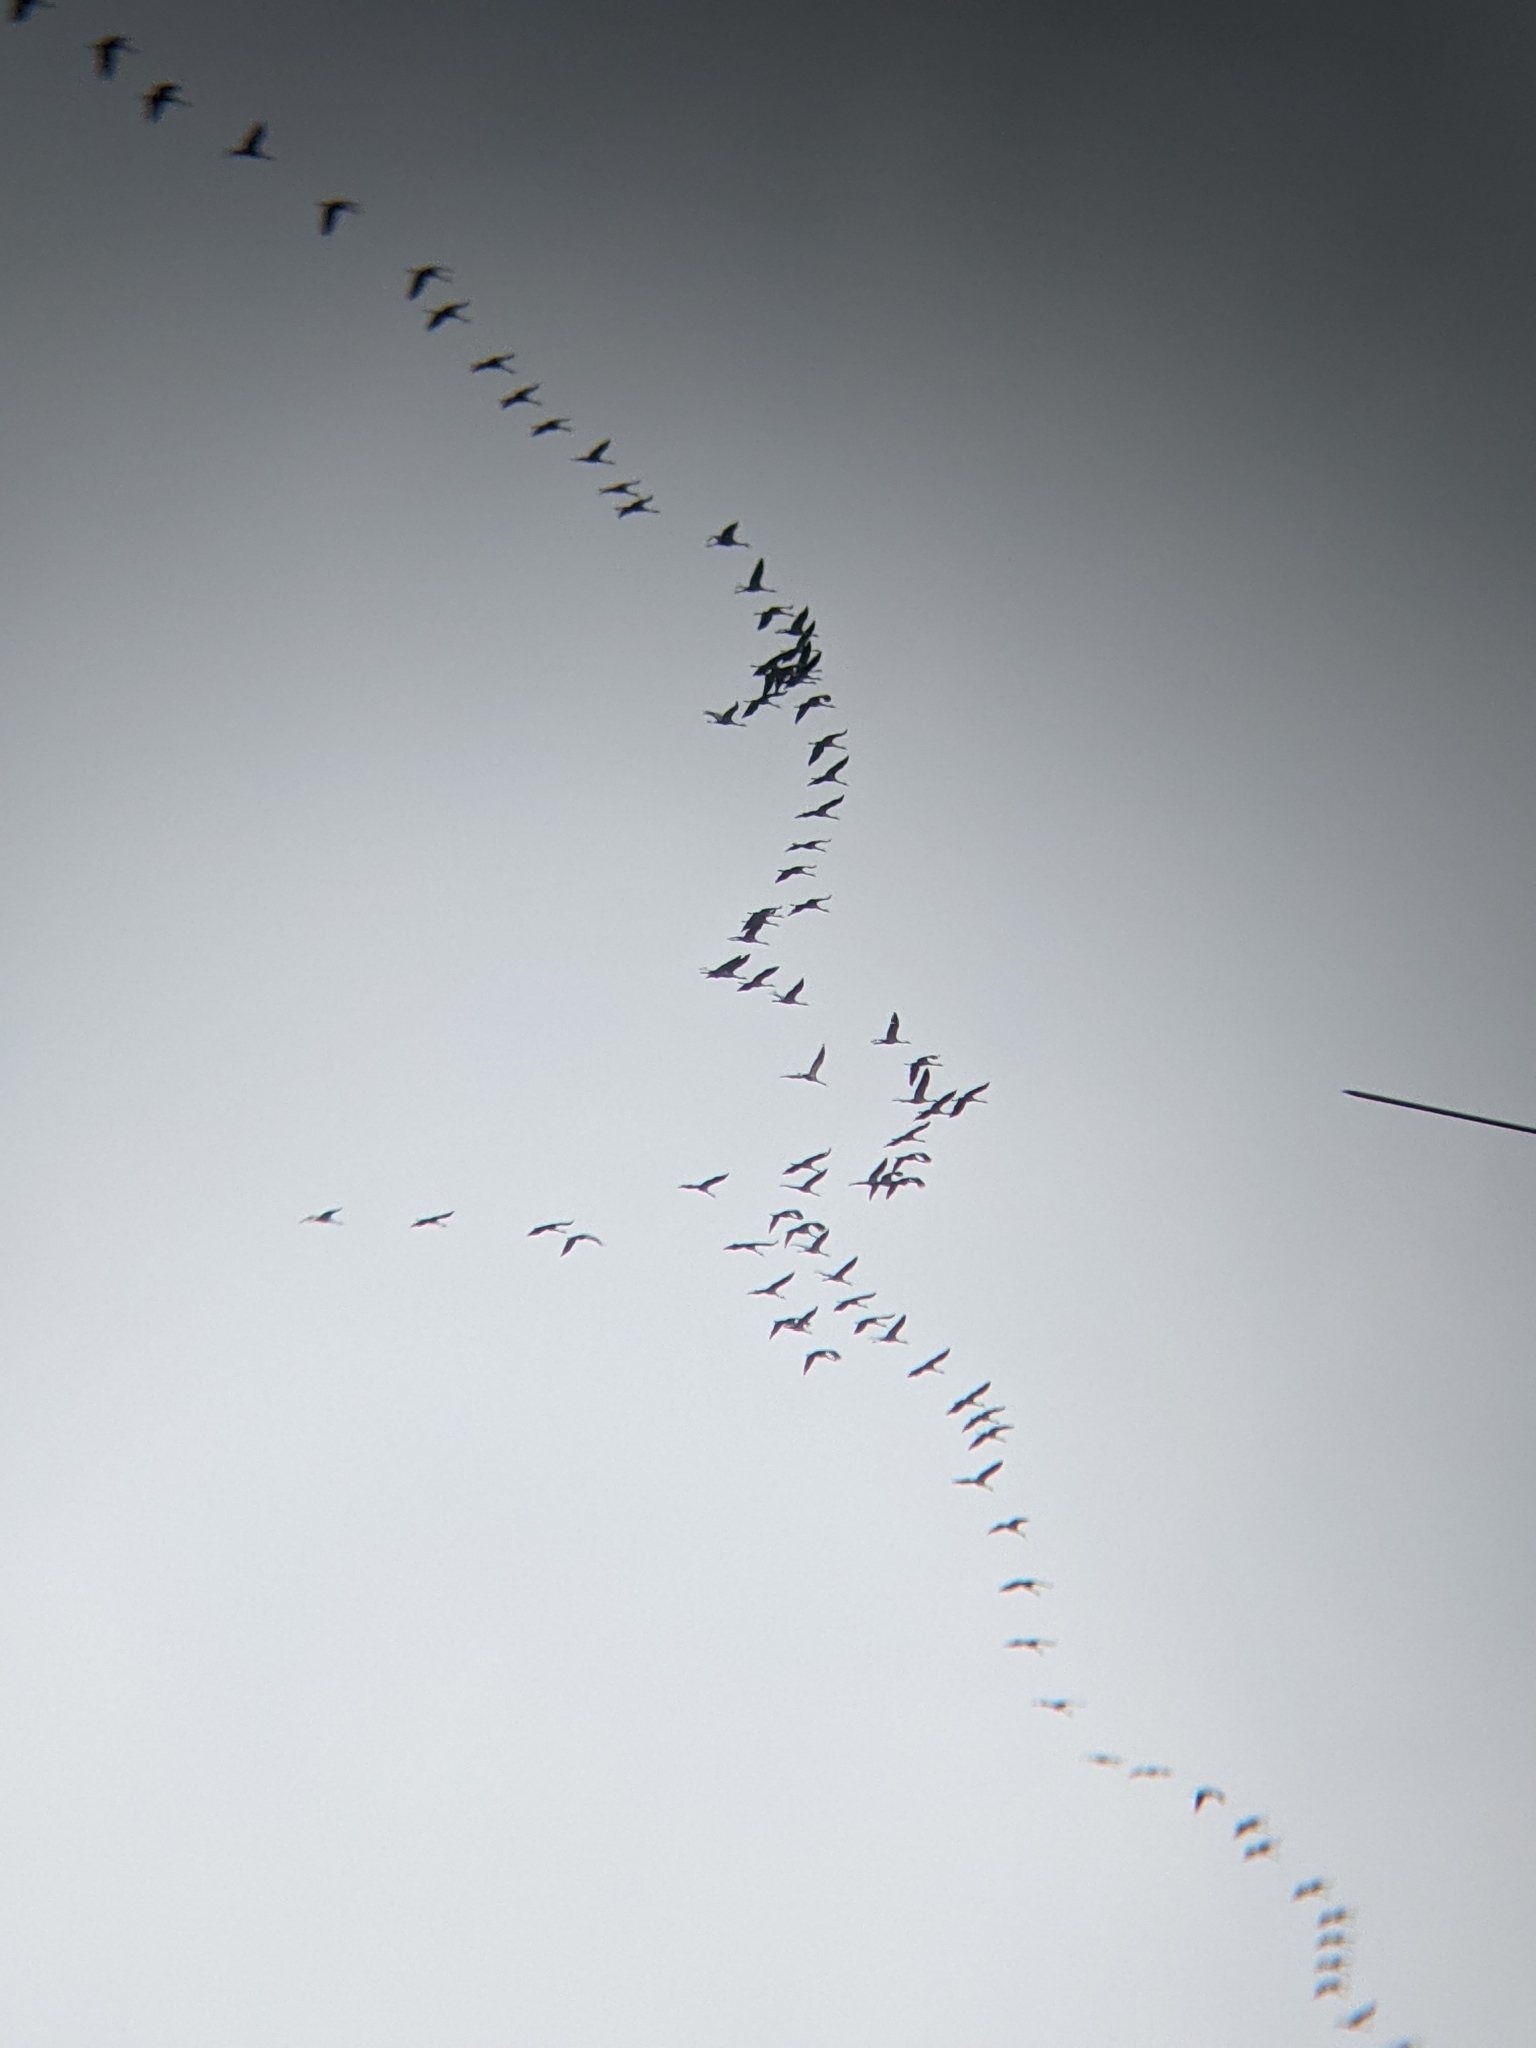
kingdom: Animalia
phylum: Chordata
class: Aves
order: Gruiformes
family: Gruidae
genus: Grus
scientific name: Grus grus
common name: Common crane
